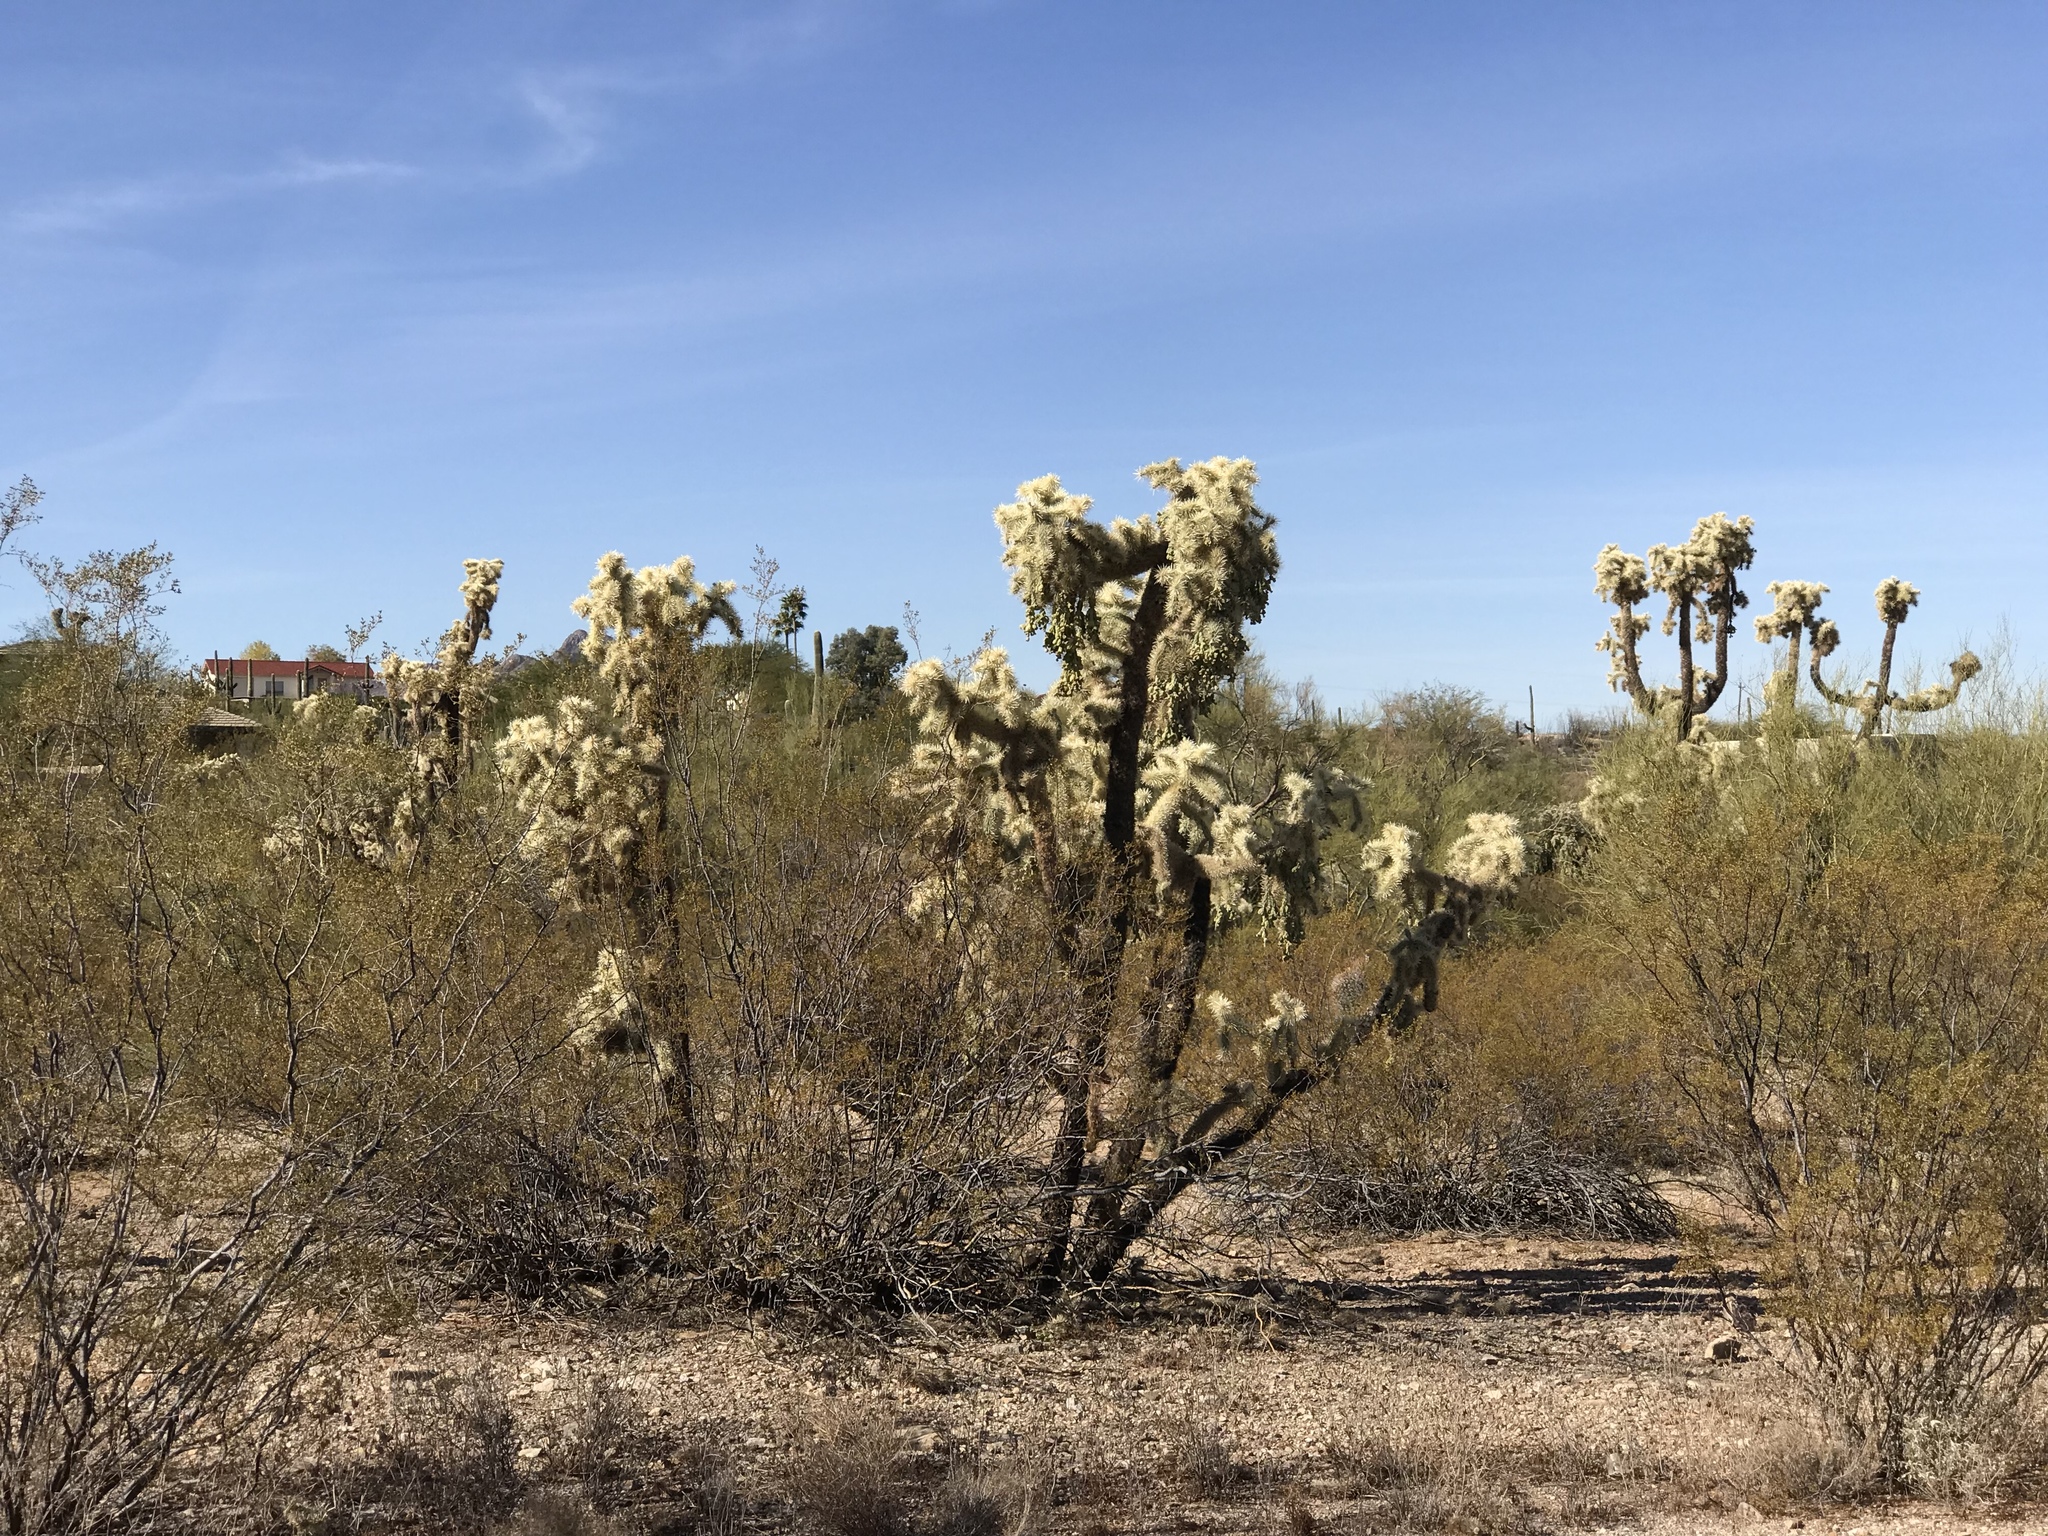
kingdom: Plantae
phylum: Tracheophyta
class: Magnoliopsida
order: Caryophyllales
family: Cactaceae
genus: Cylindropuntia
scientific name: Cylindropuntia fulgida
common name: Jumping cholla
